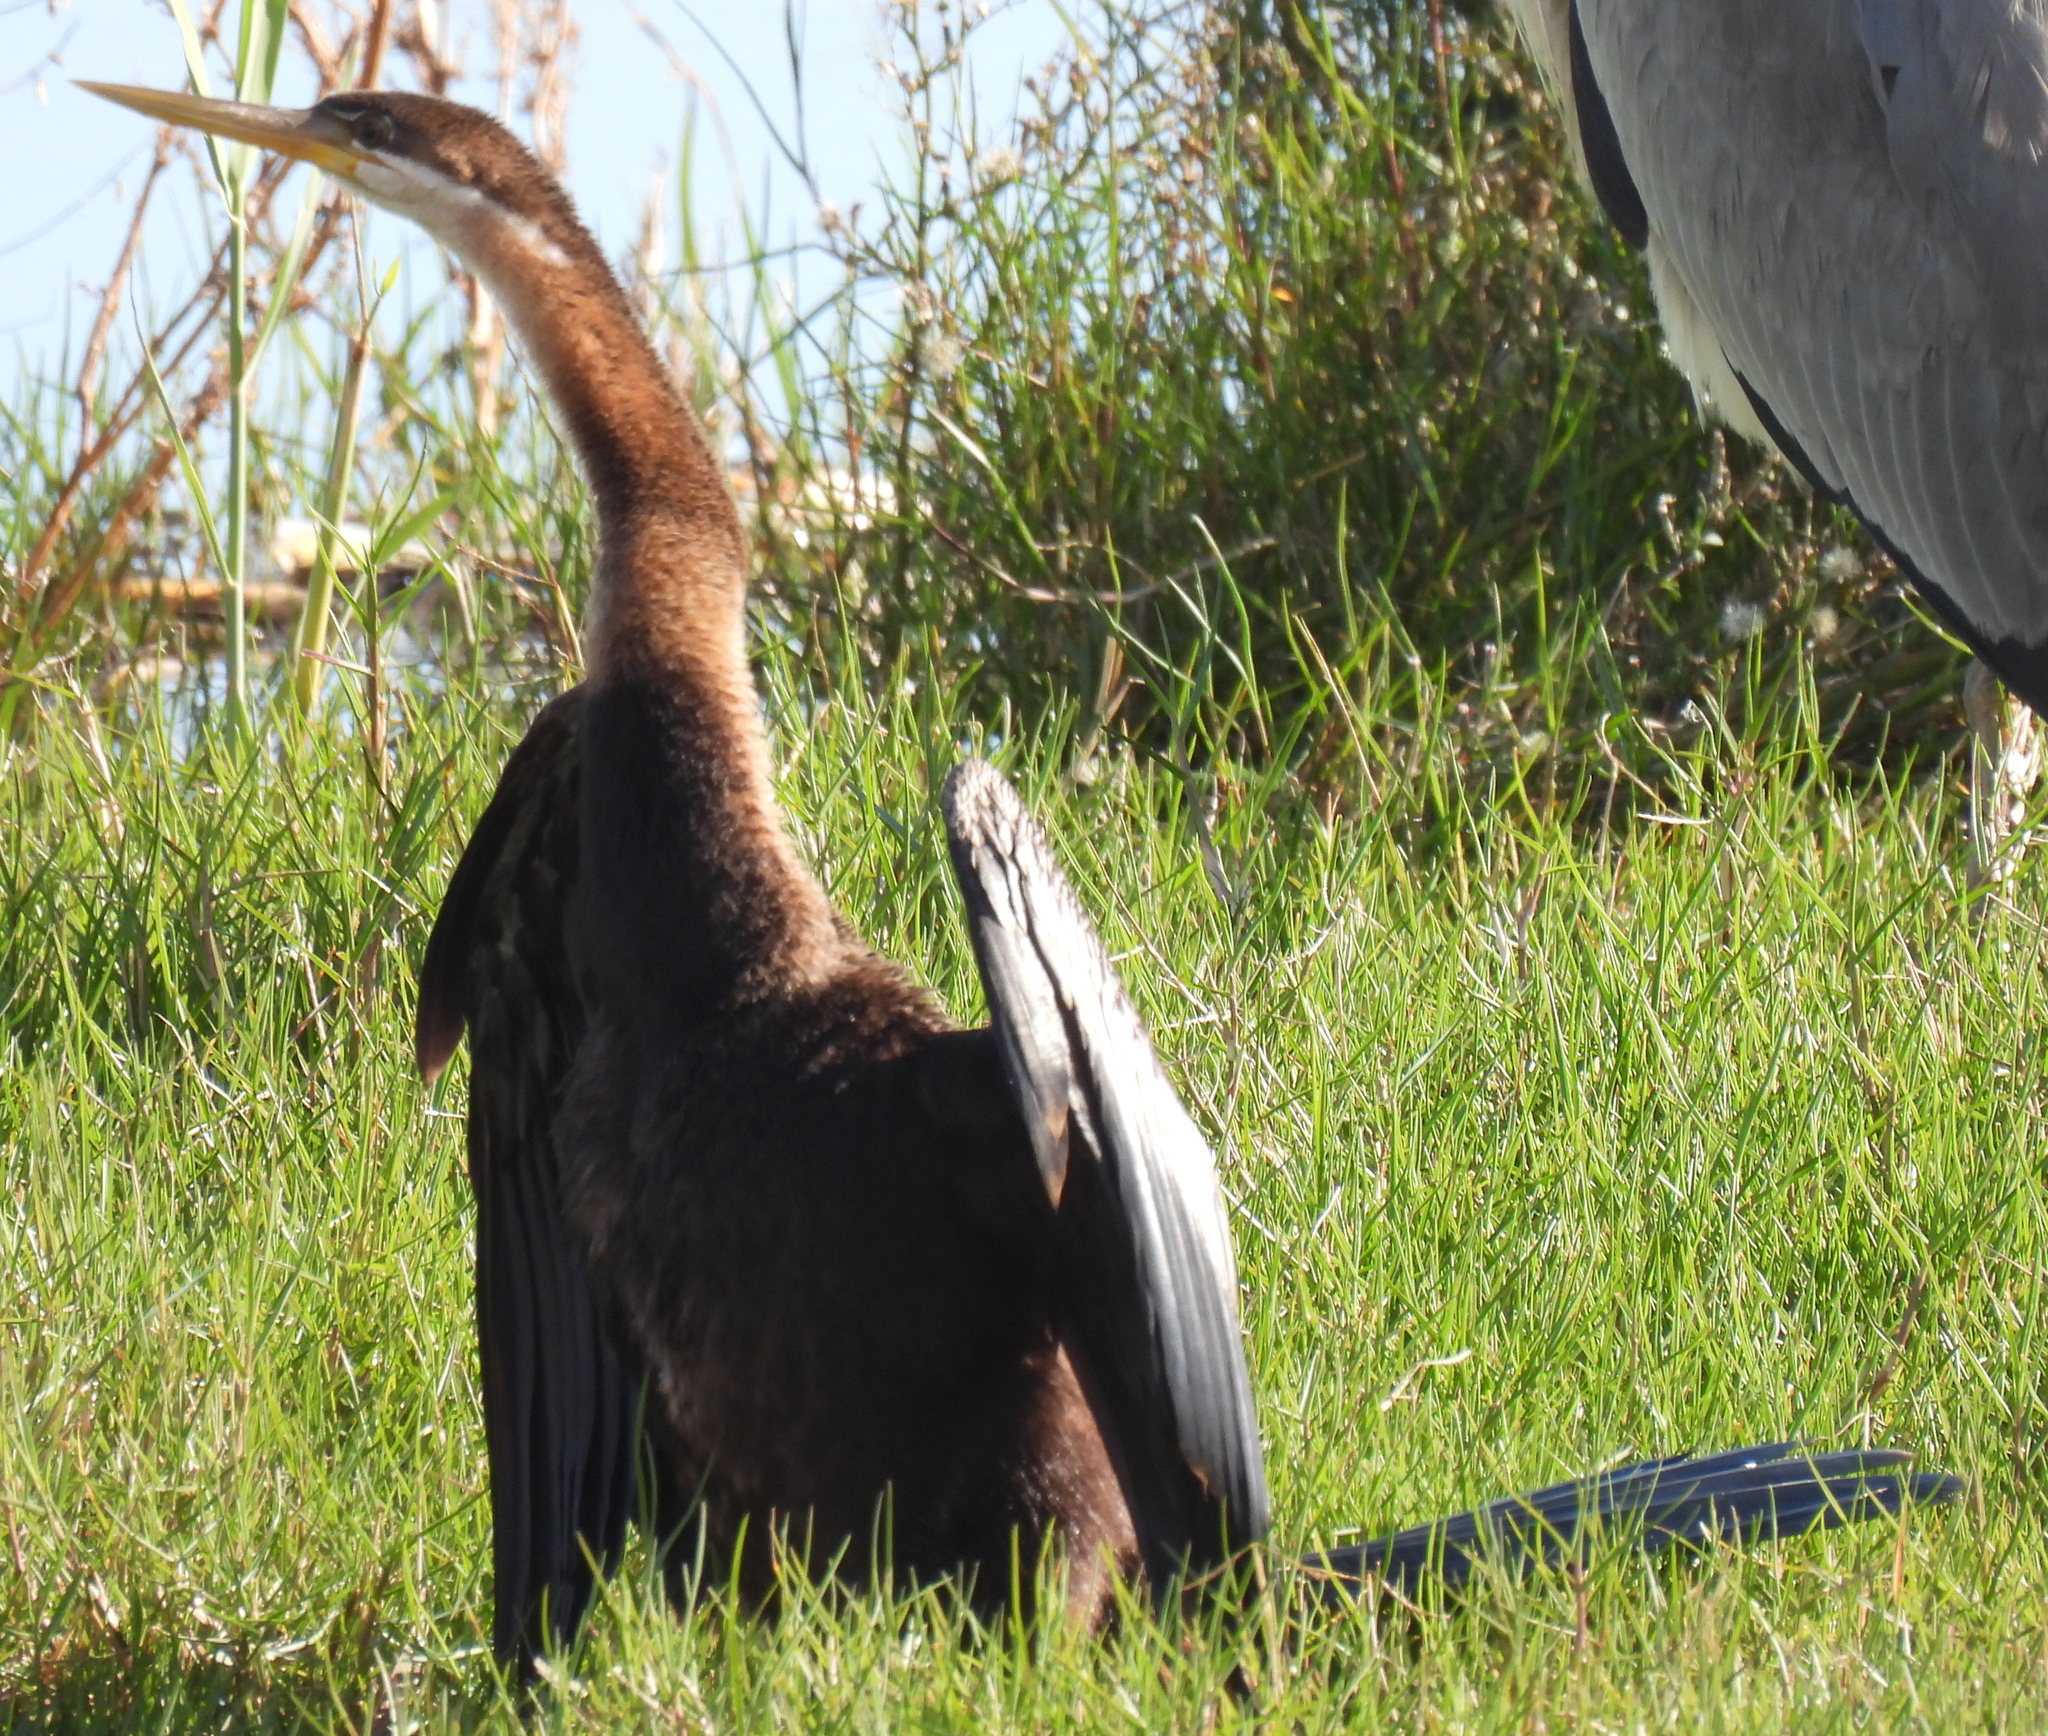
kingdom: Animalia
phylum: Chordata
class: Aves
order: Suliformes
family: Anhingidae
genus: Anhinga
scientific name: Anhinga rufa
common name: African darter
